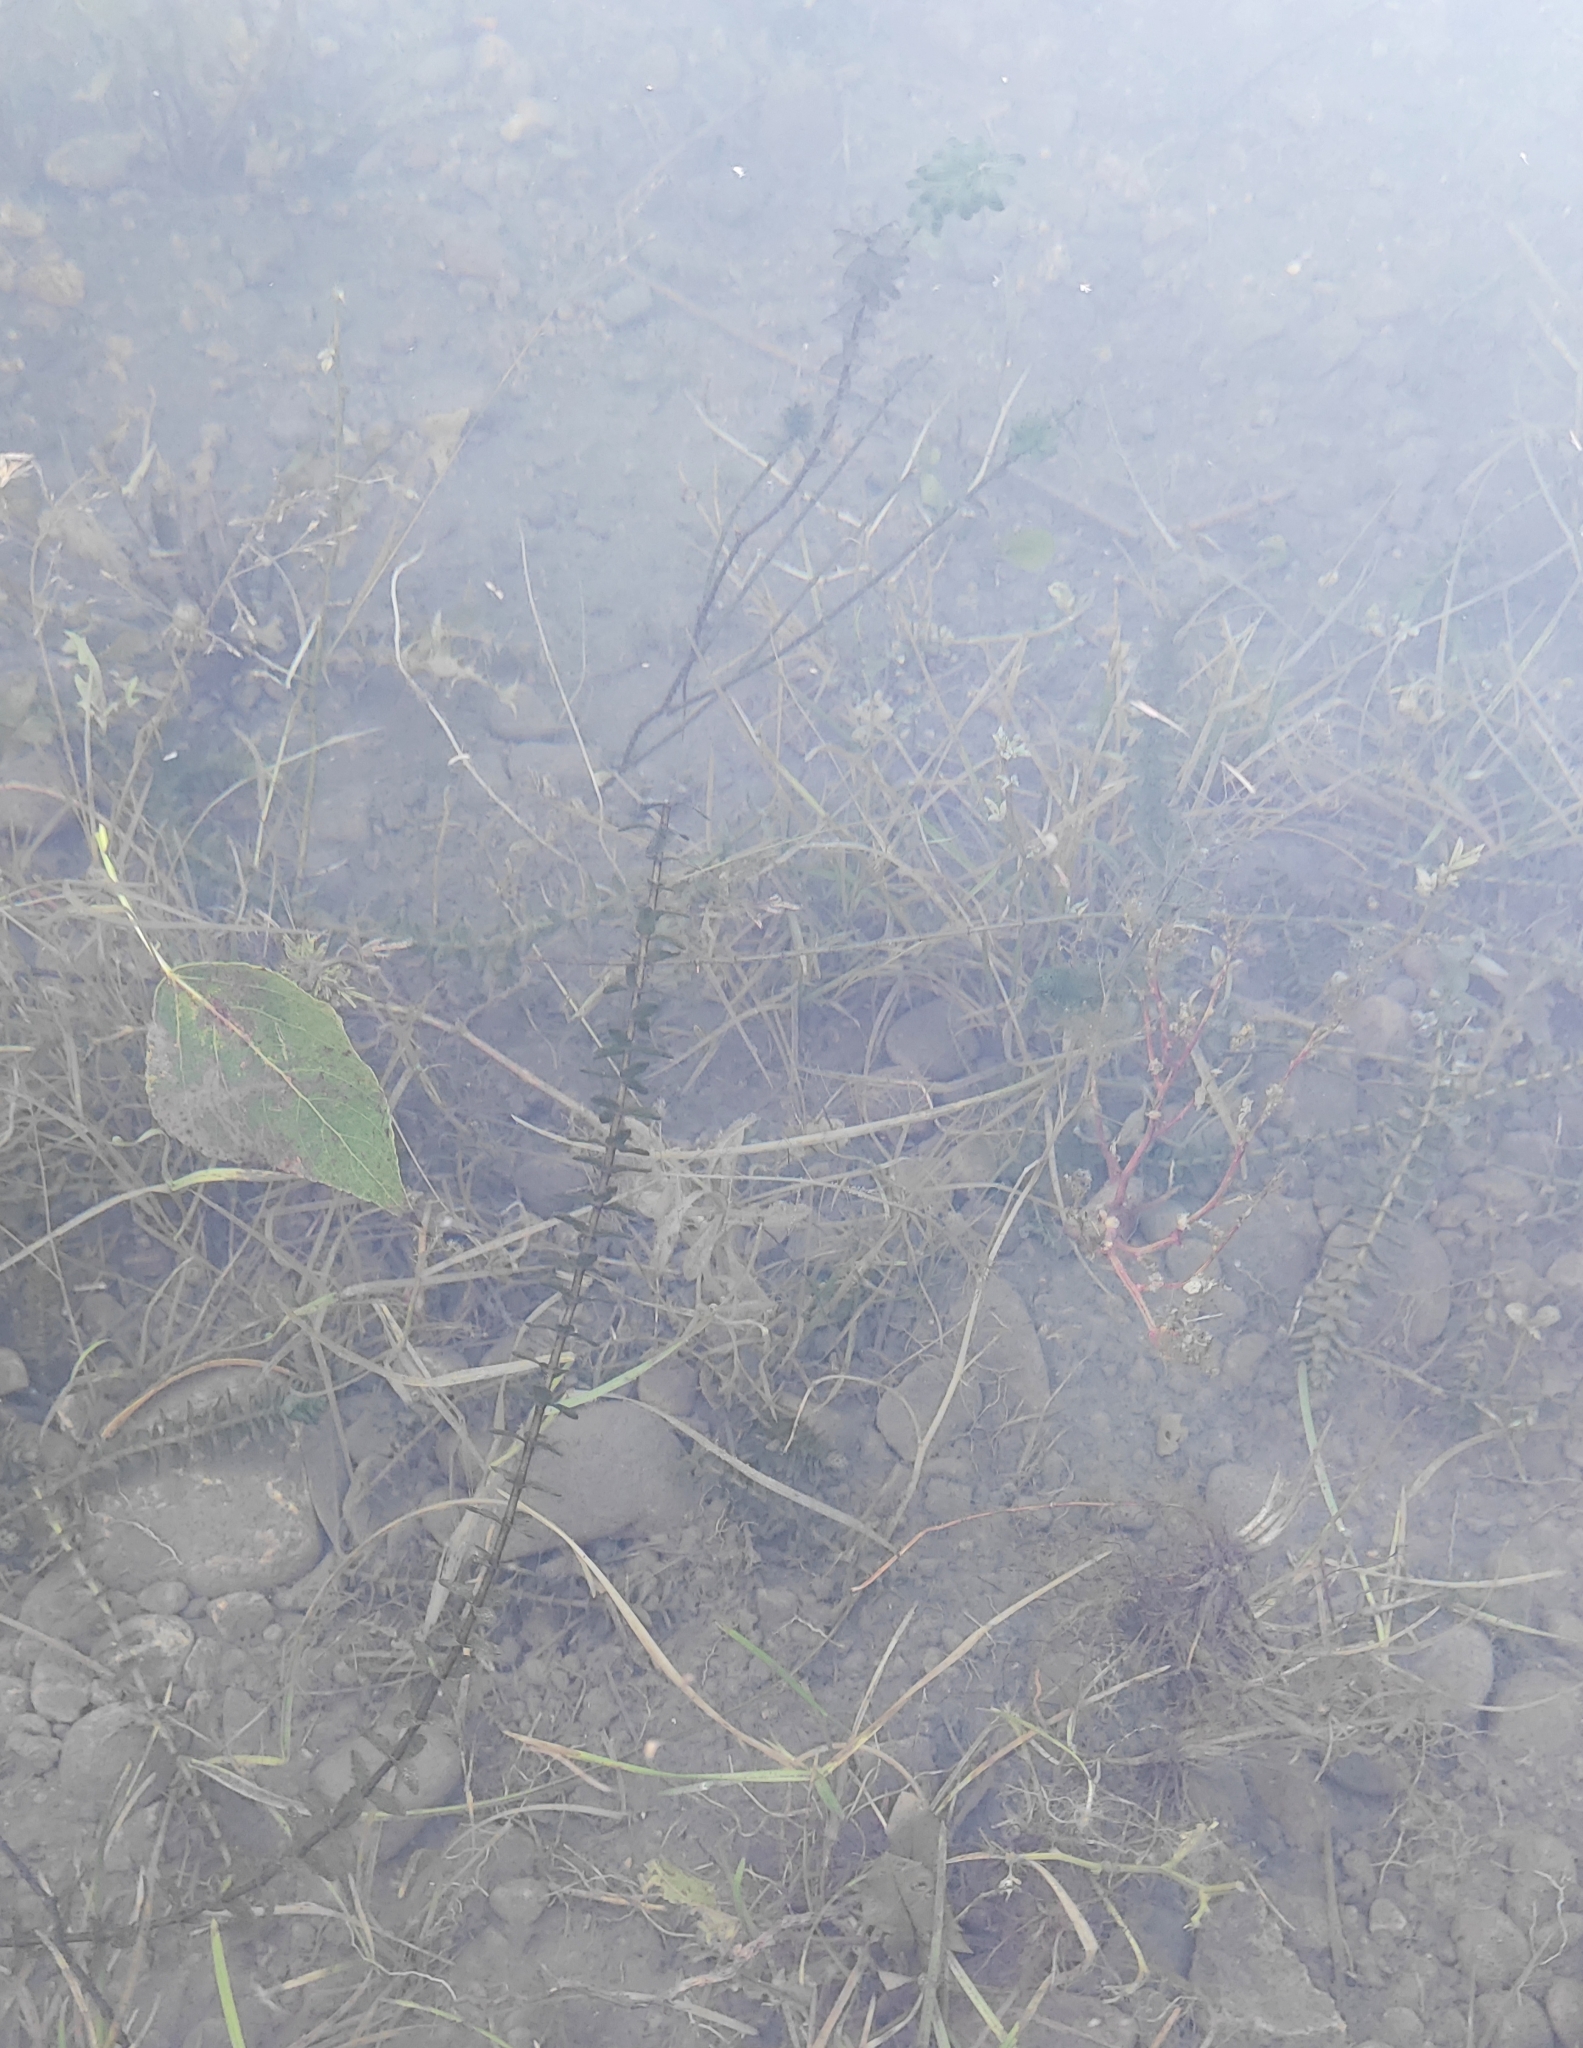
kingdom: Plantae
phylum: Tracheophyta
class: Liliopsida
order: Alismatales
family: Hydrocharitaceae
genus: Elodea
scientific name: Elodea canadensis
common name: Canadian waterweed
